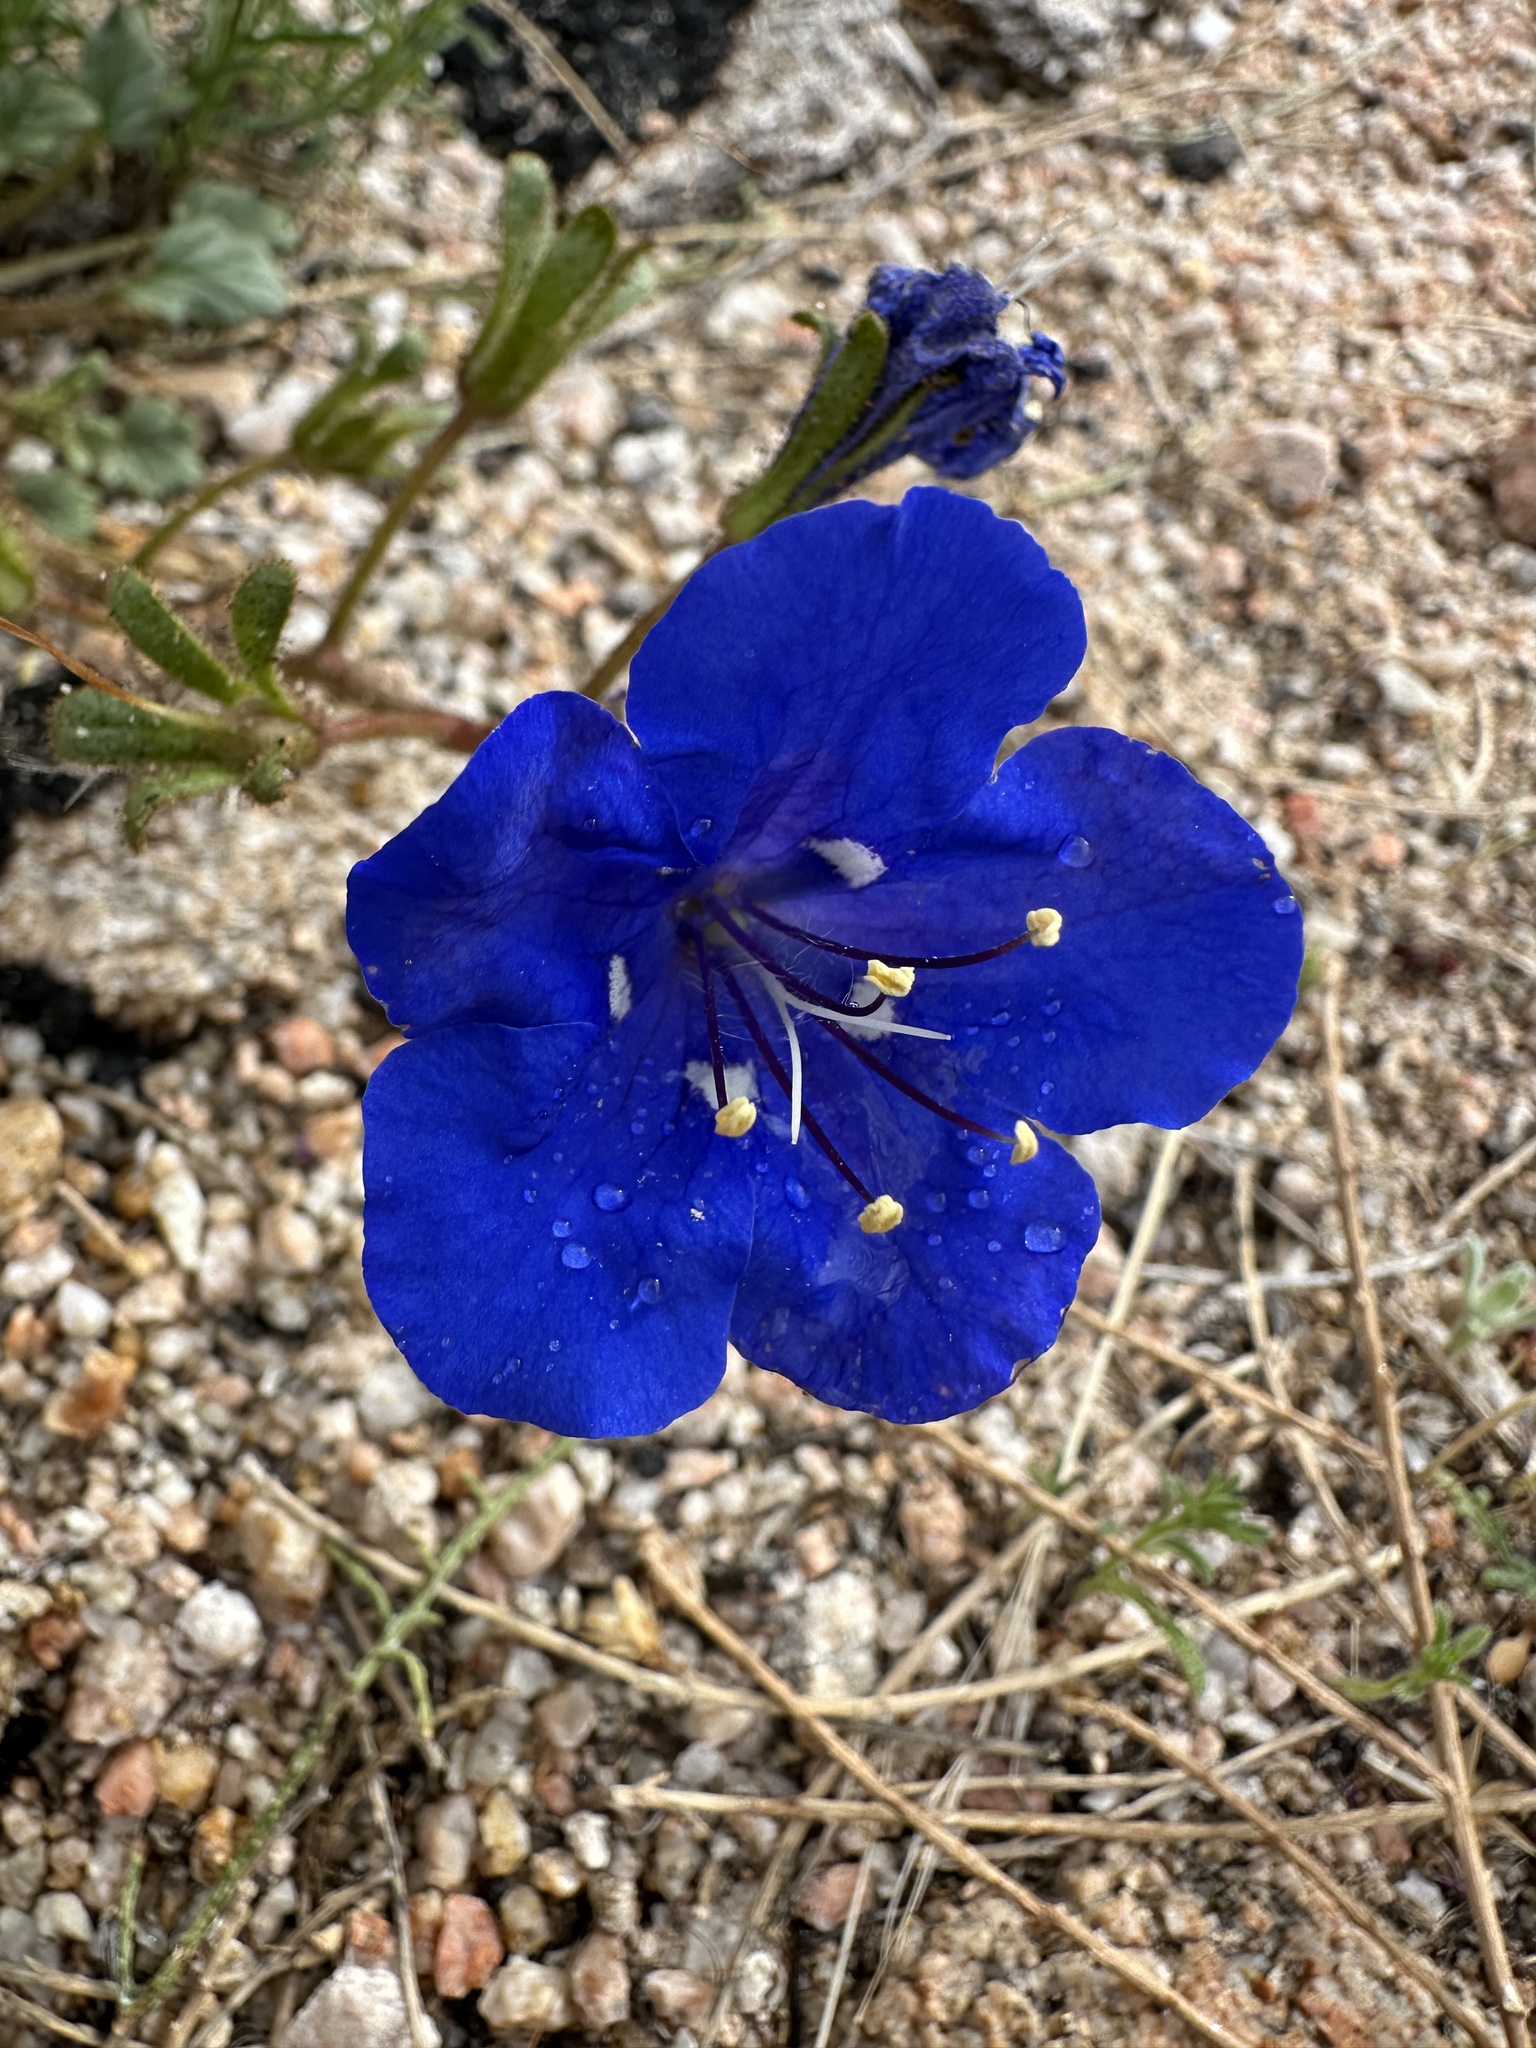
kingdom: Plantae
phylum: Tracheophyta
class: Magnoliopsida
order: Boraginales
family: Hydrophyllaceae
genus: Phacelia
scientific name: Phacelia nashiana
